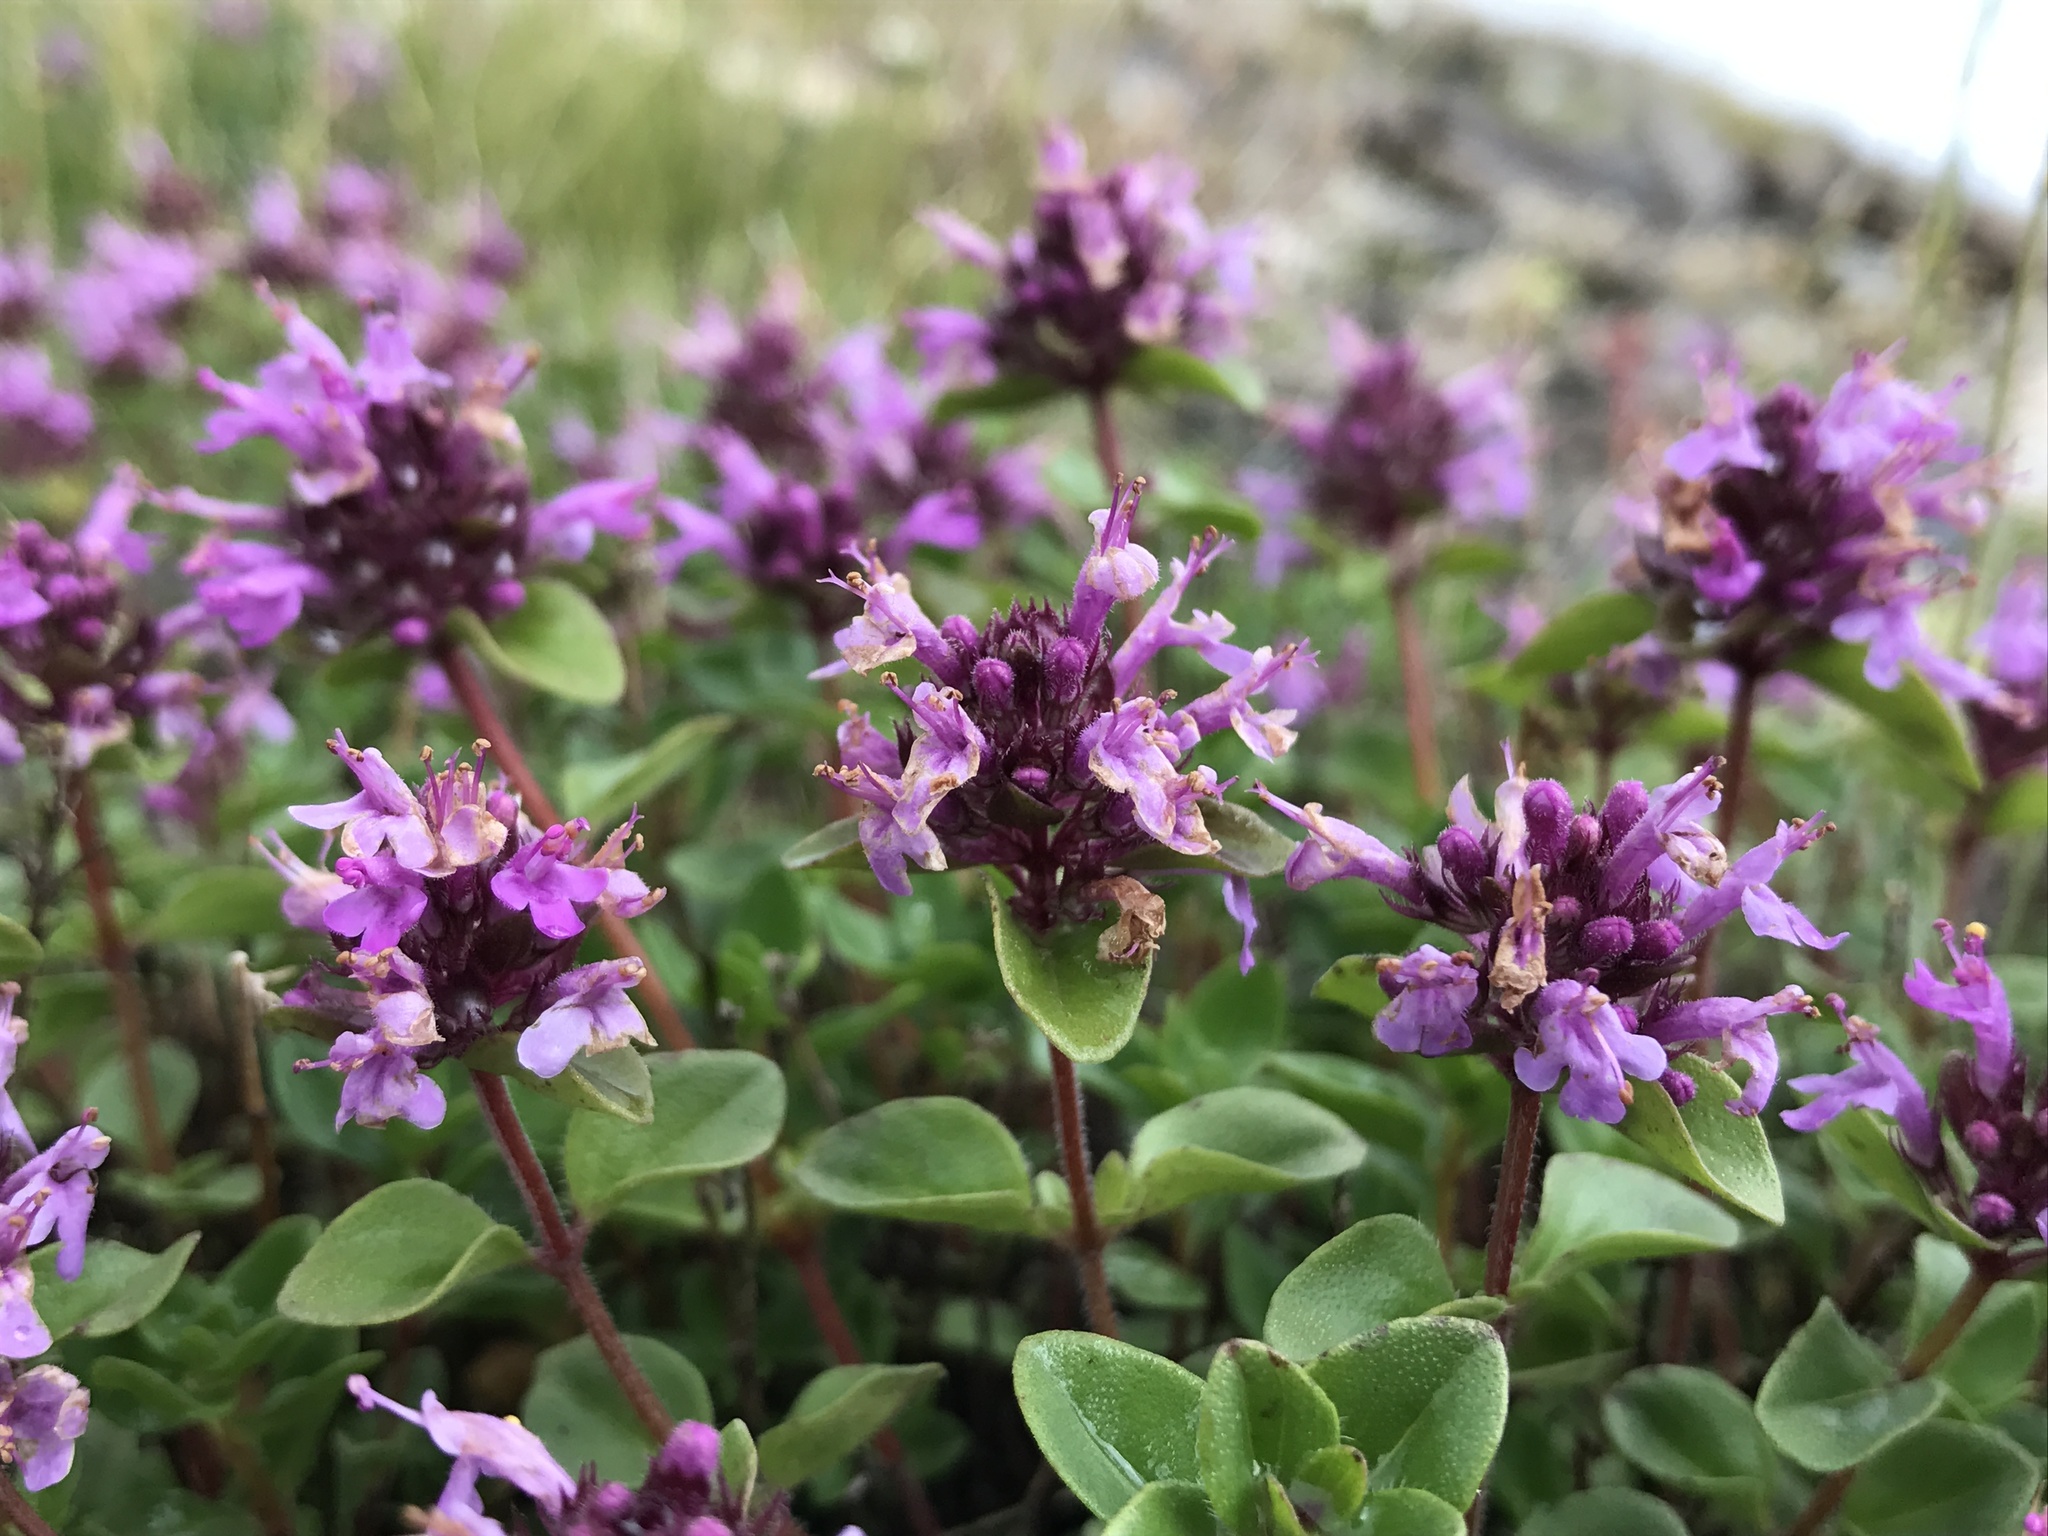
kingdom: Plantae
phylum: Tracheophyta
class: Magnoliopsida
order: Lamiales
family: Lamiaceae
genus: Thymus
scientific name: Thymus nummularius
